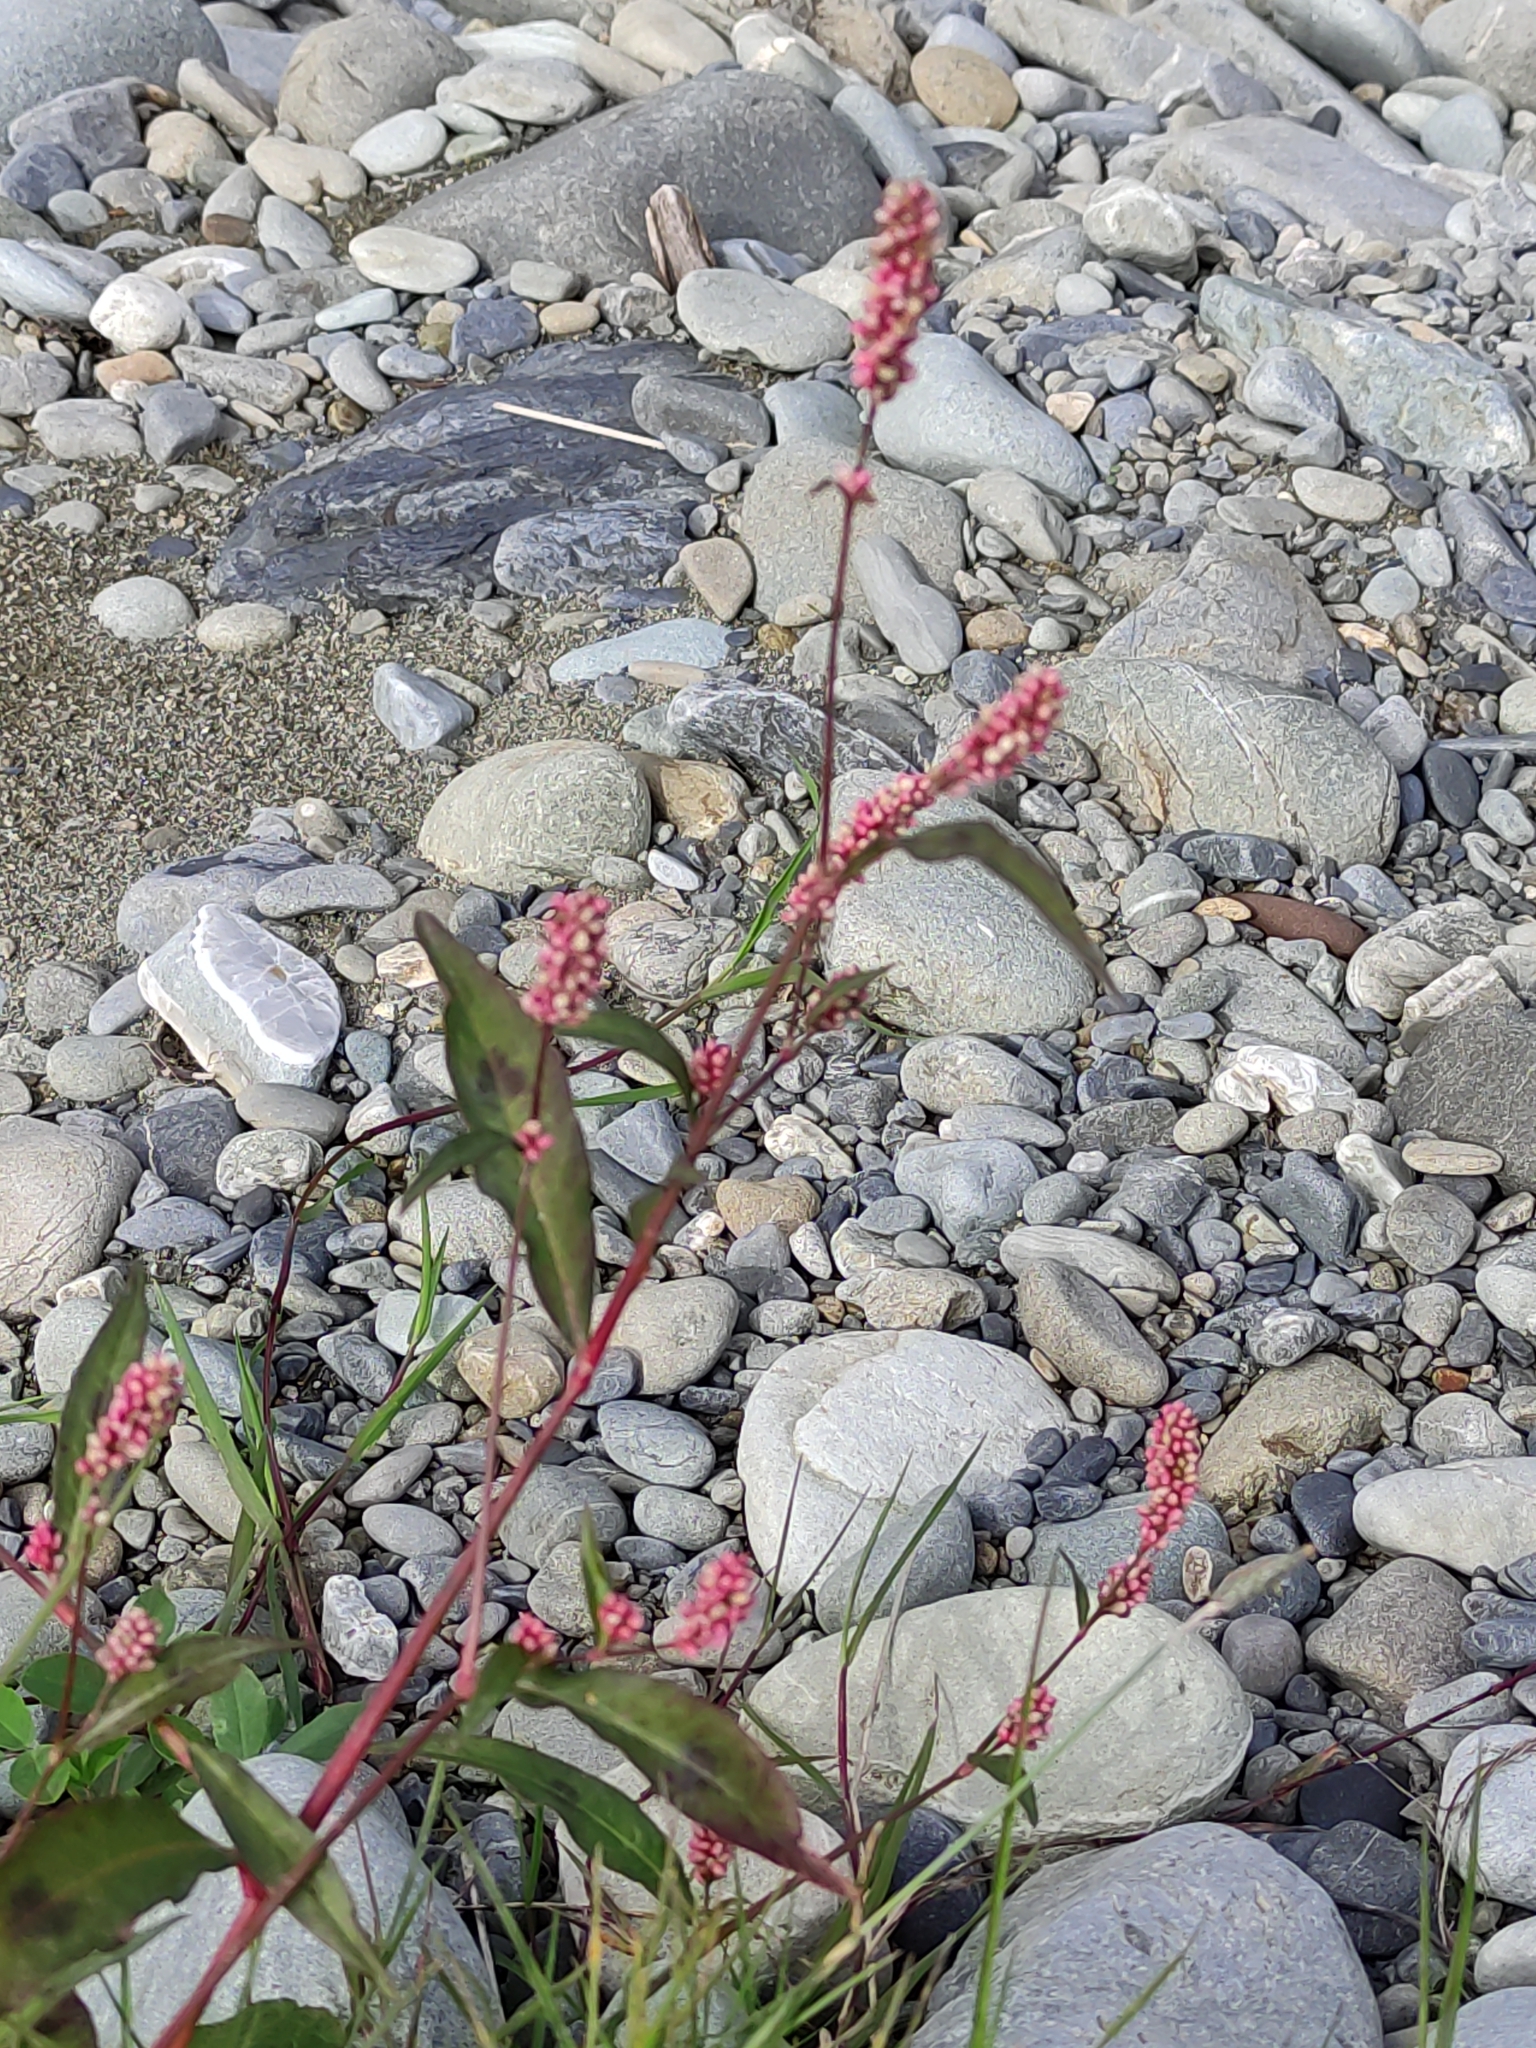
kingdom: Plantae
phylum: Tracheophyta
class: Magnoliopsida
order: Caryophyllales
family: Polygonaceae
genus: Persicaria
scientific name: Persicaria maculosa
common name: Redshank
